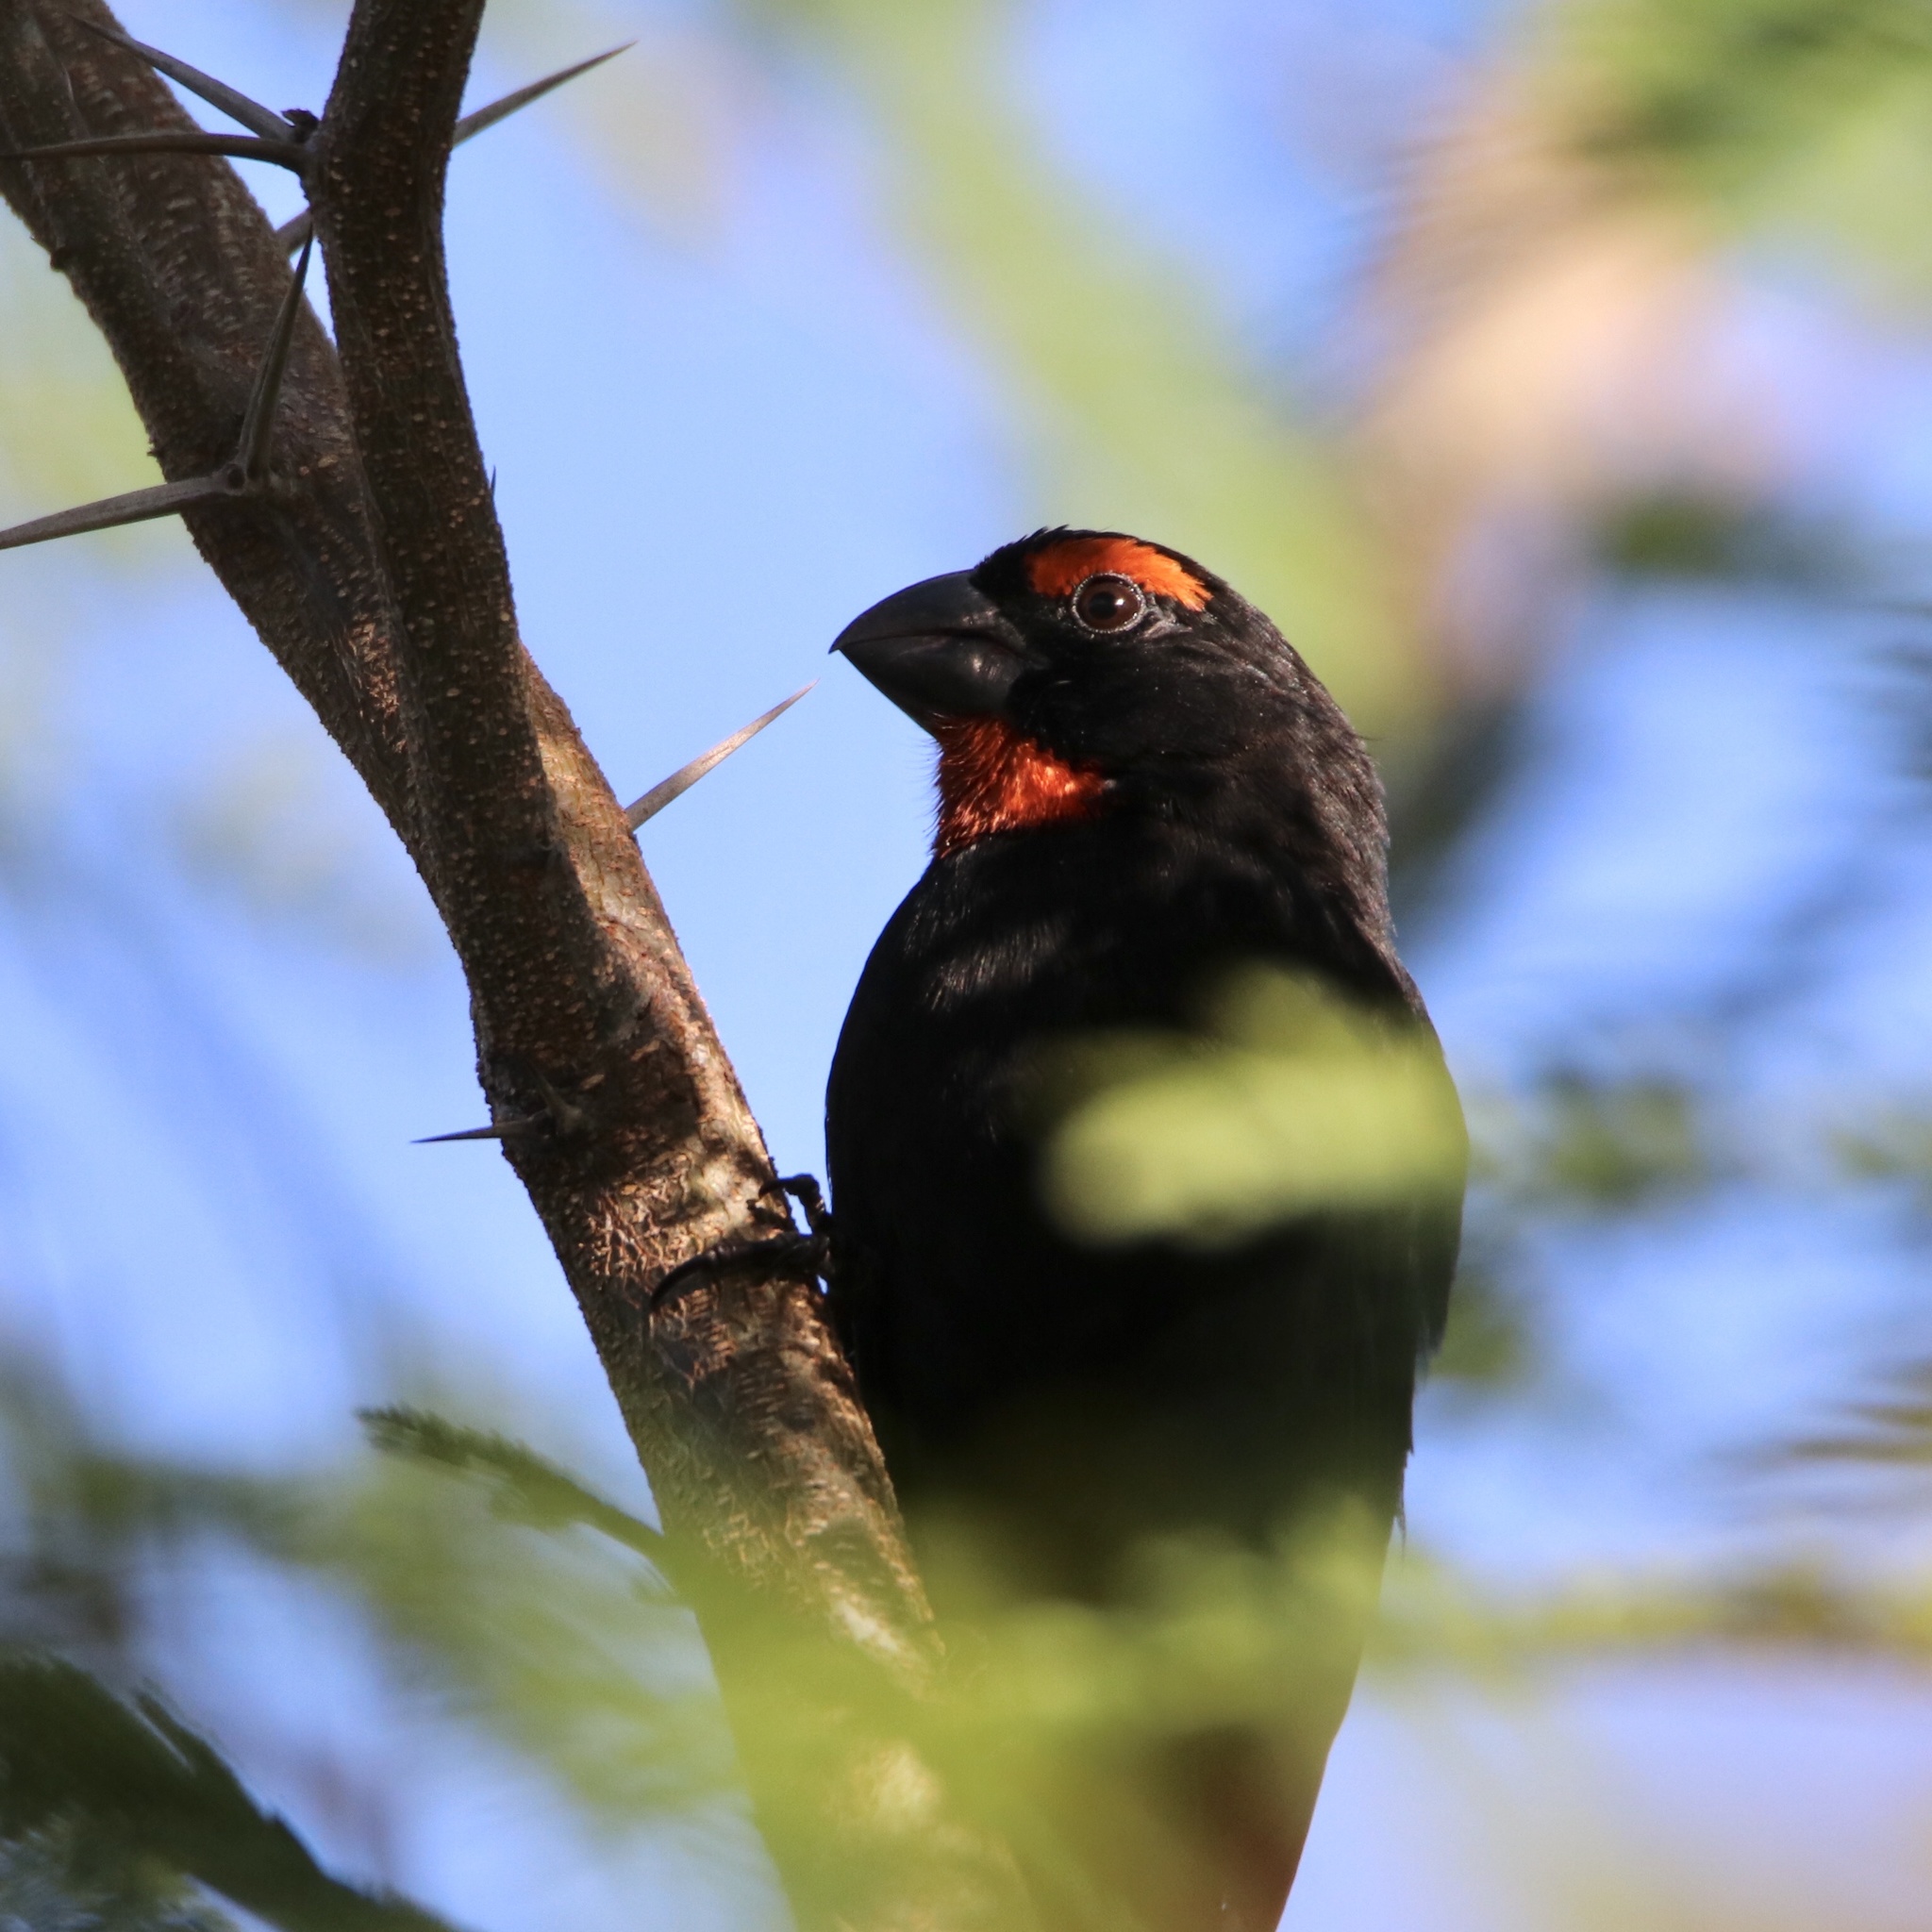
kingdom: Animalia
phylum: Chordata
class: Aves
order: Passeriformes
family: Thraupidae
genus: Melopyrrha
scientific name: Melopyrrha violacea
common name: Greater antillean bullfinch
